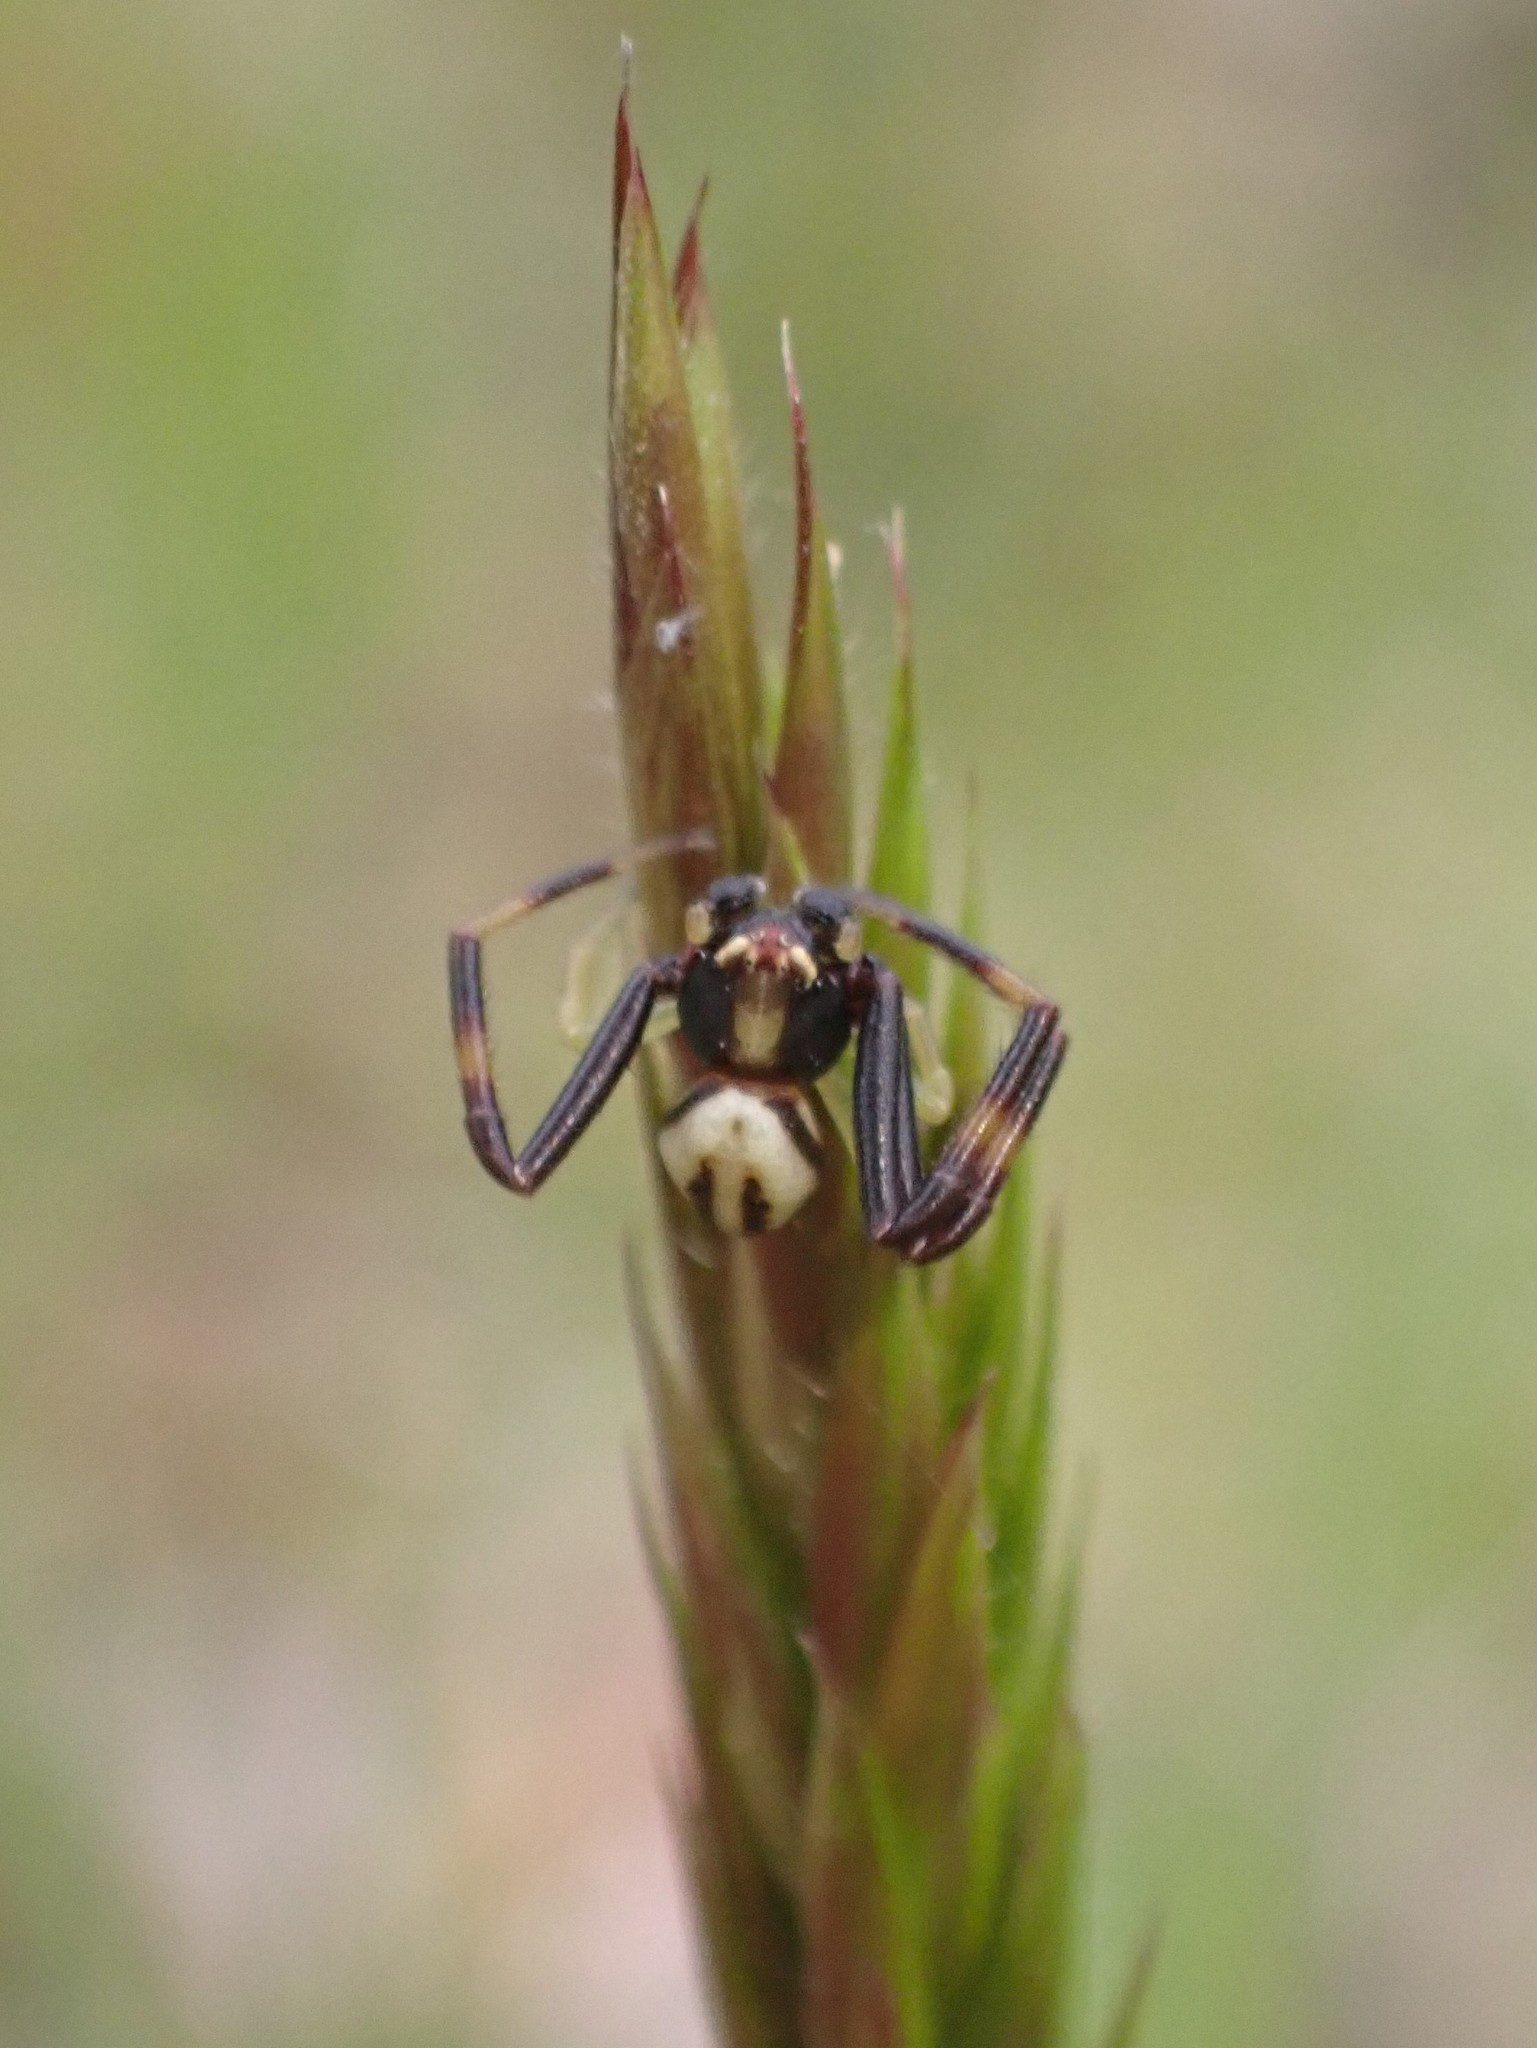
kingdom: Animalia
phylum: Arthropoda
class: Arachnida
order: Araneae
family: Thomisidae
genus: Misumena
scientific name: Misumena vatia
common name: Goldenrod crab spider
